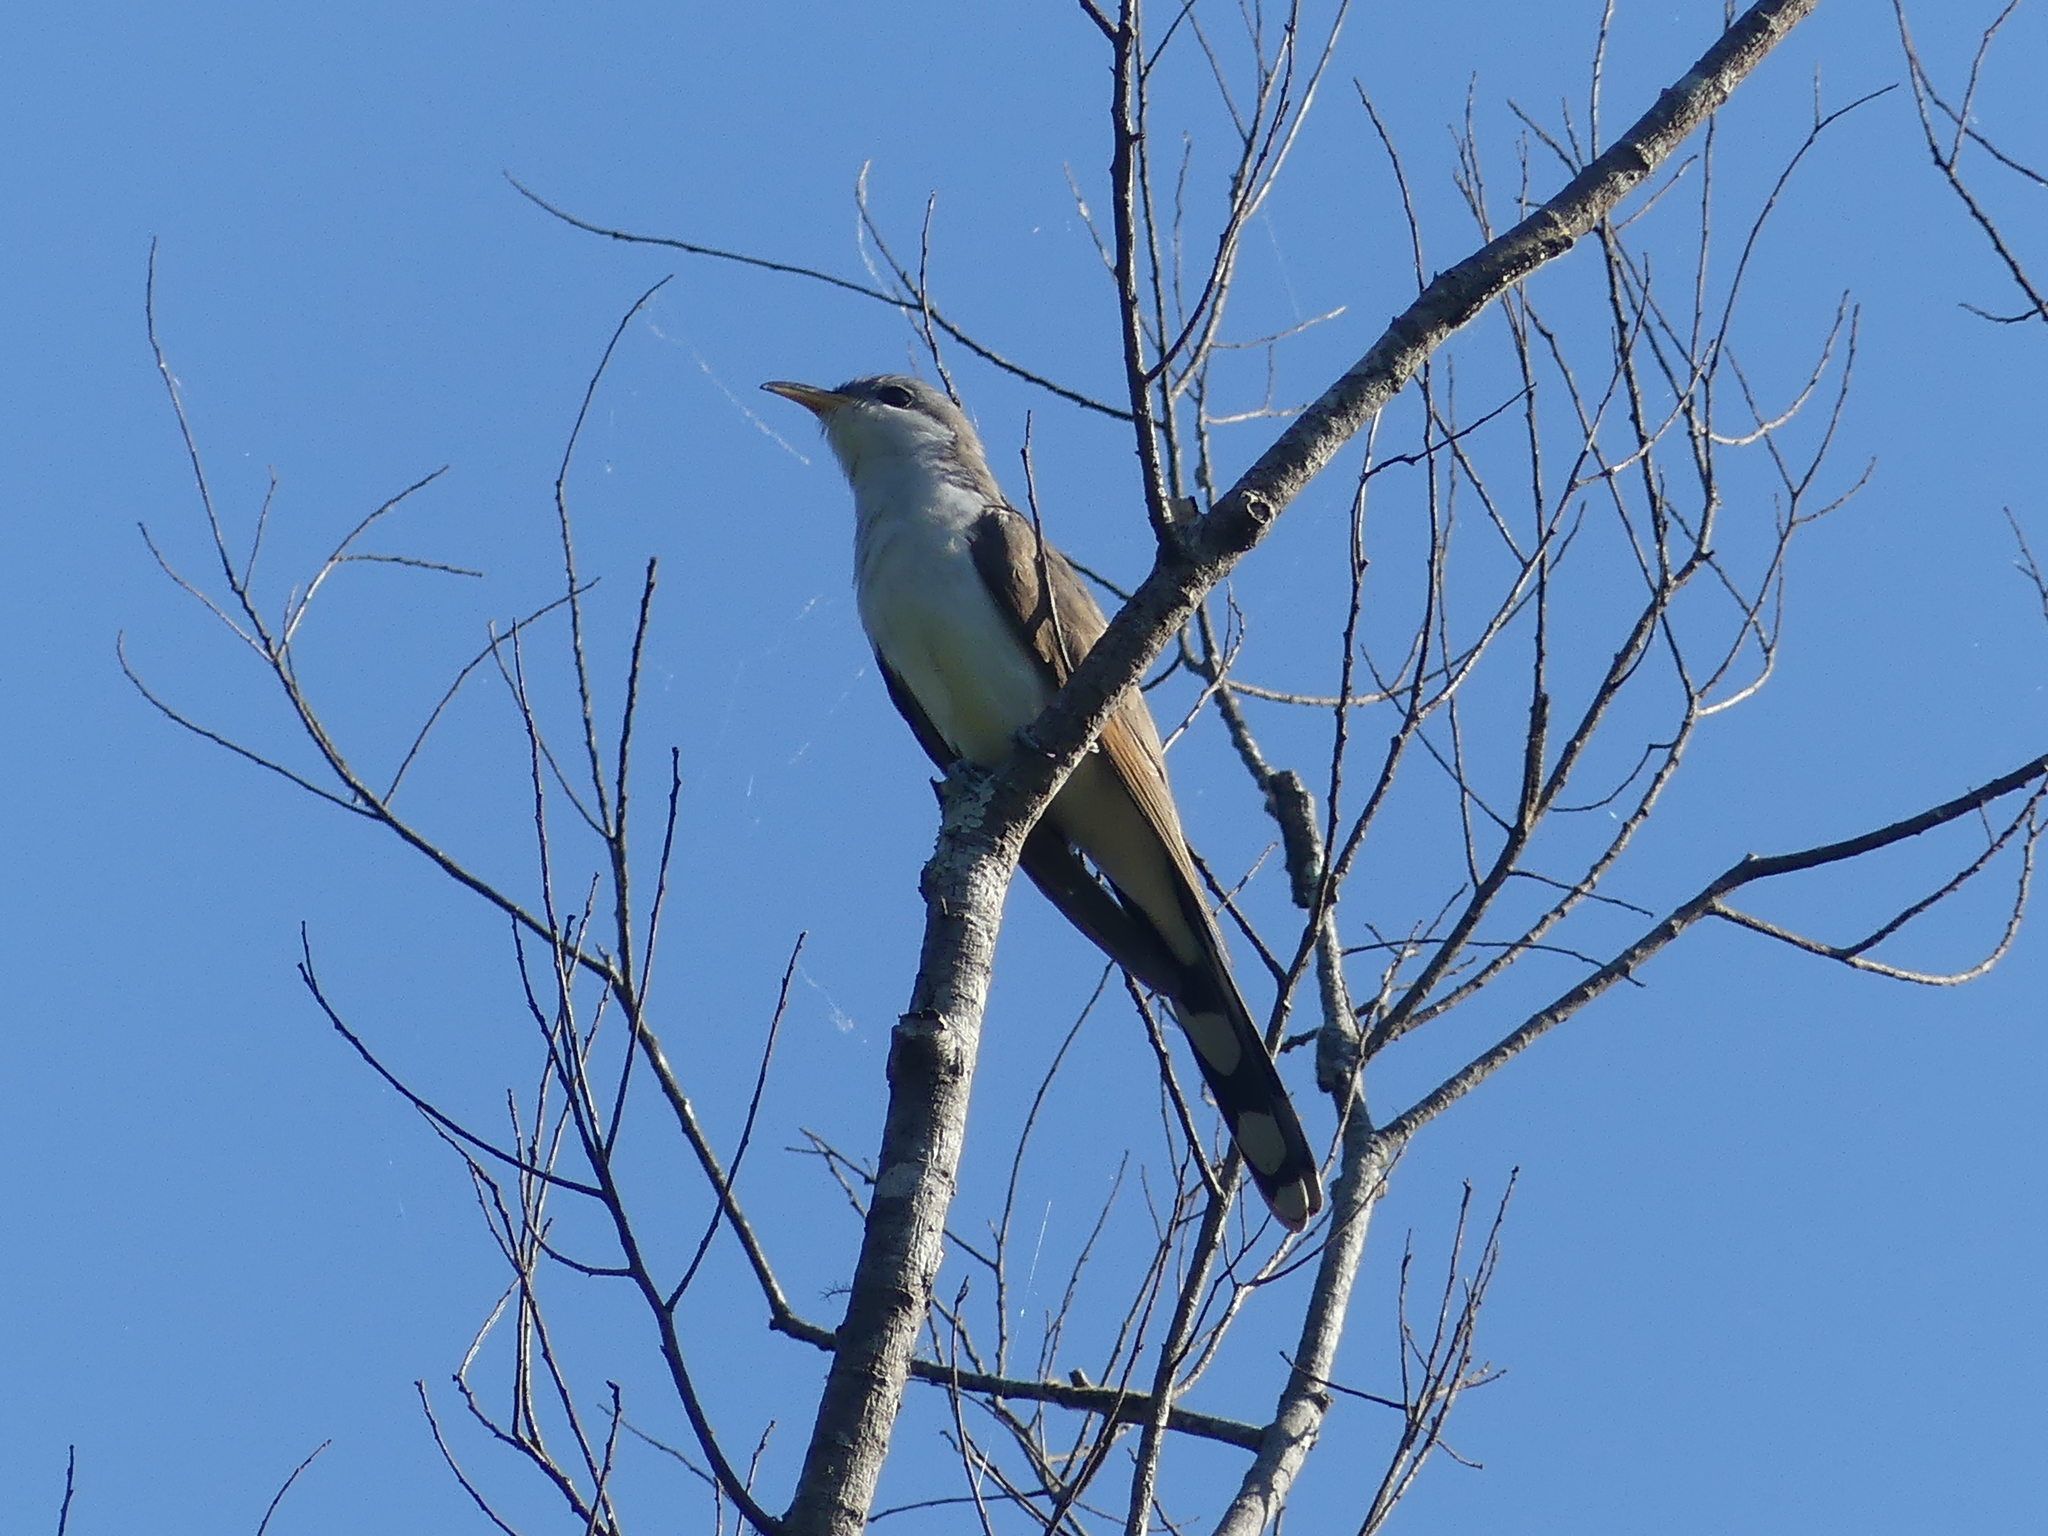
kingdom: Animalia
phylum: Chordata
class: Aves
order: Cuculiformes
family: Cuculidae
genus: Coccyzus
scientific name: Coccyzus americanus
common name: Yellow-billed cuckoo
